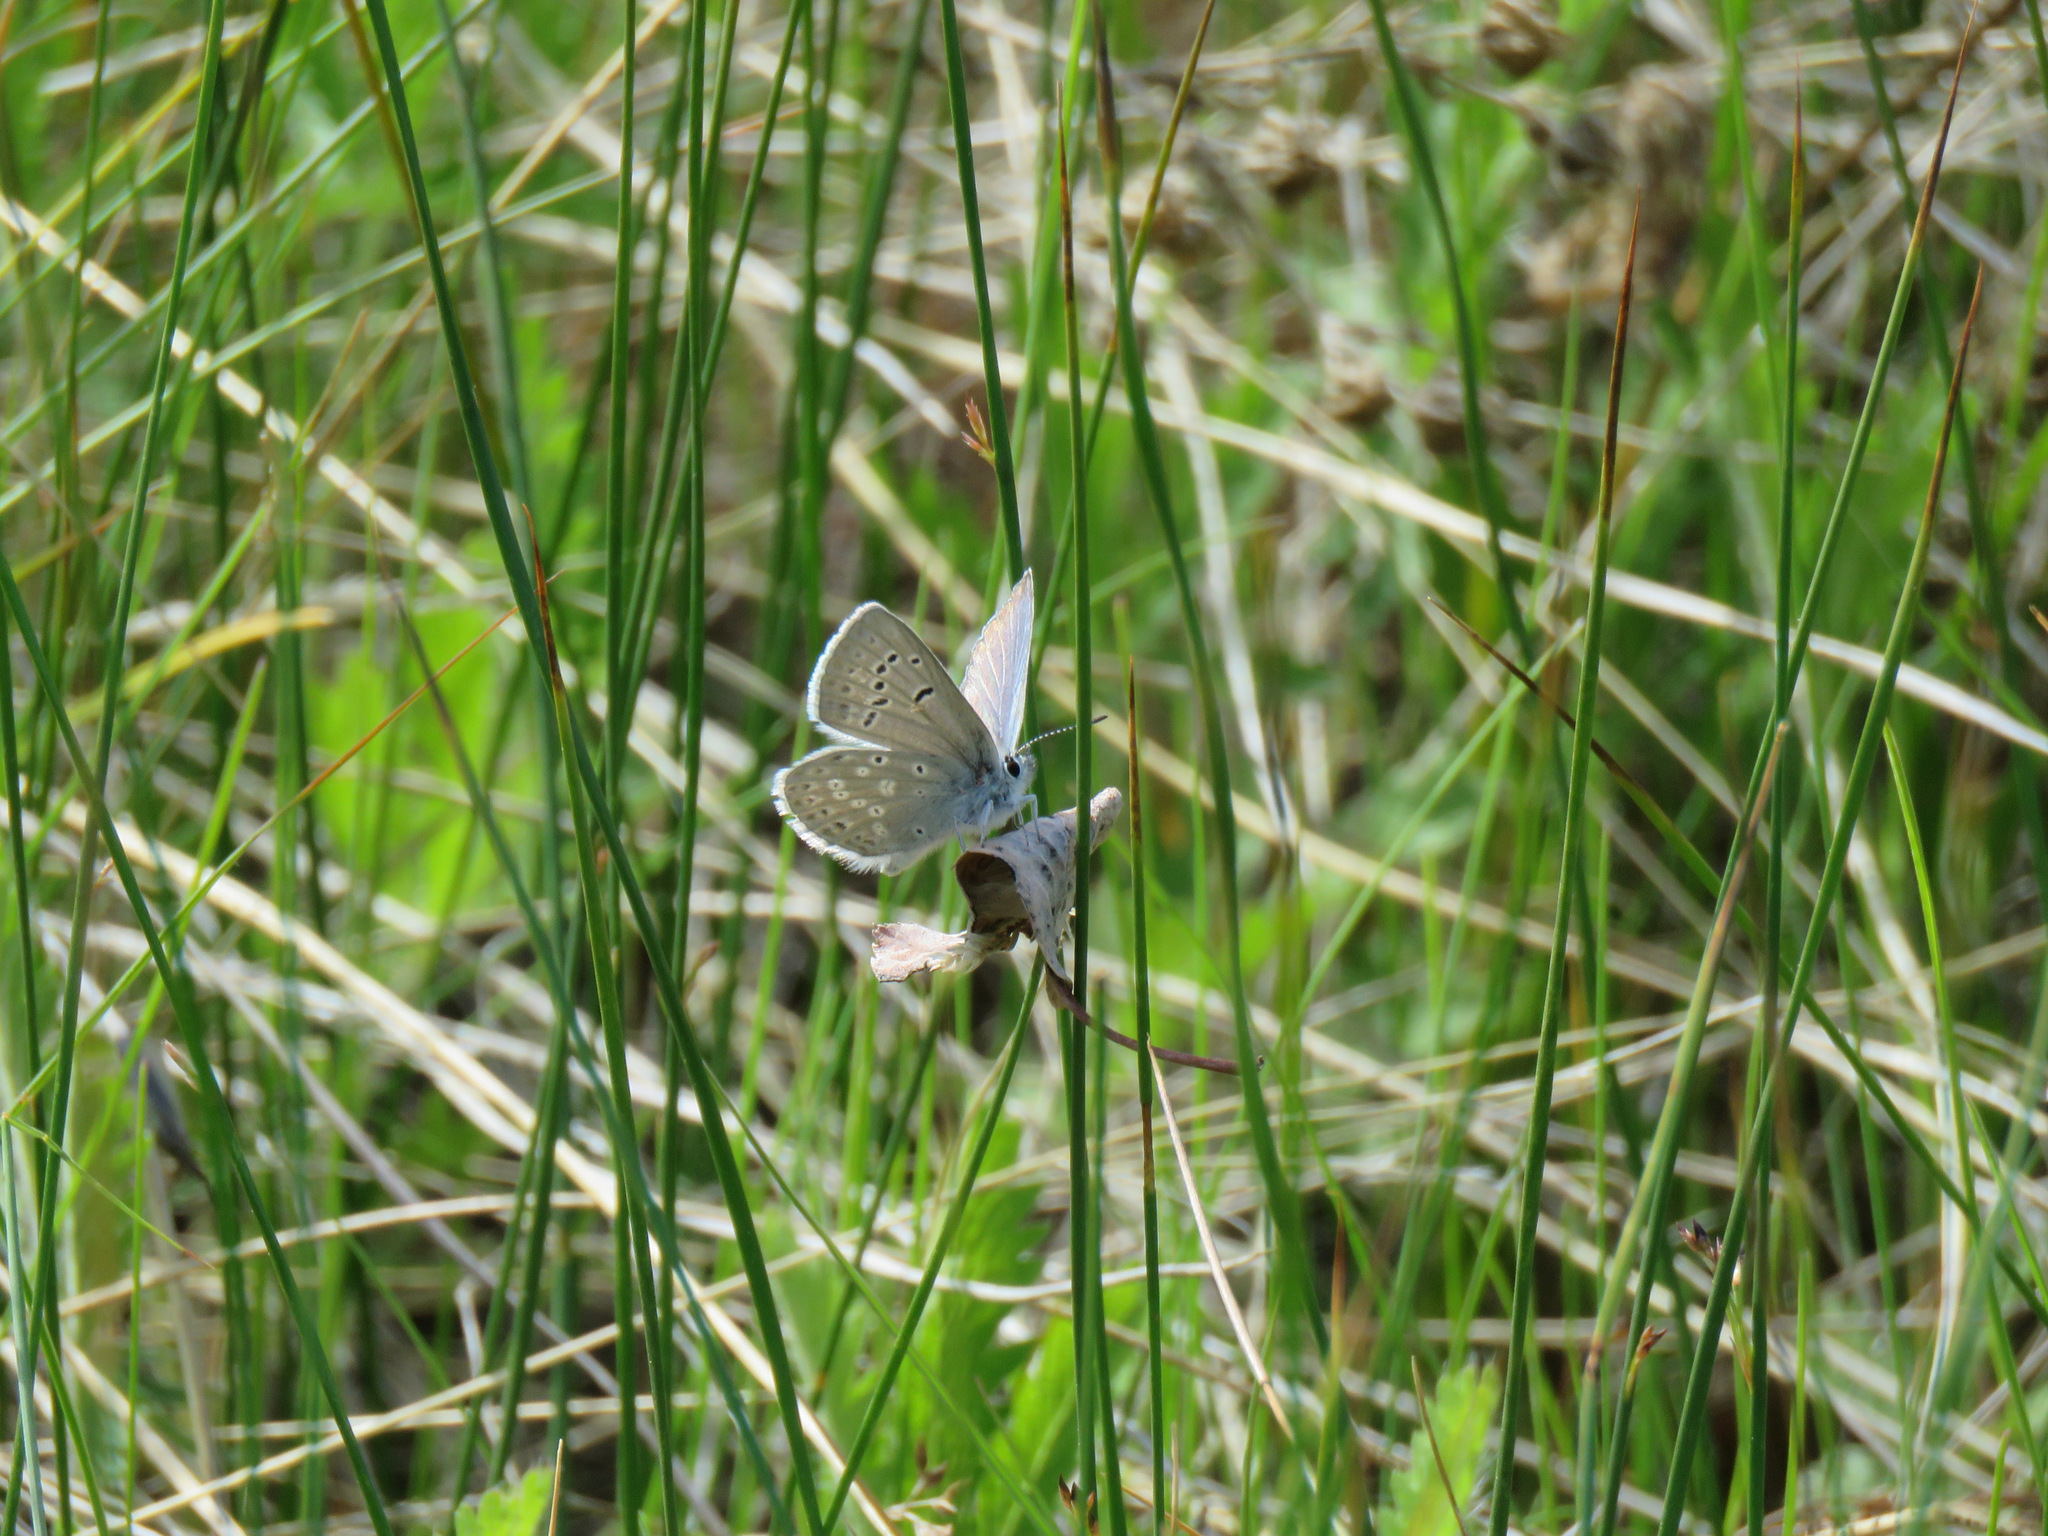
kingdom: Animalia
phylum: Arthropoda
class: Insecta
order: Lepidoptera
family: Lycaenidae
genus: Icaricia
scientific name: Icaricia icarioides
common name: Boisduval's blue
